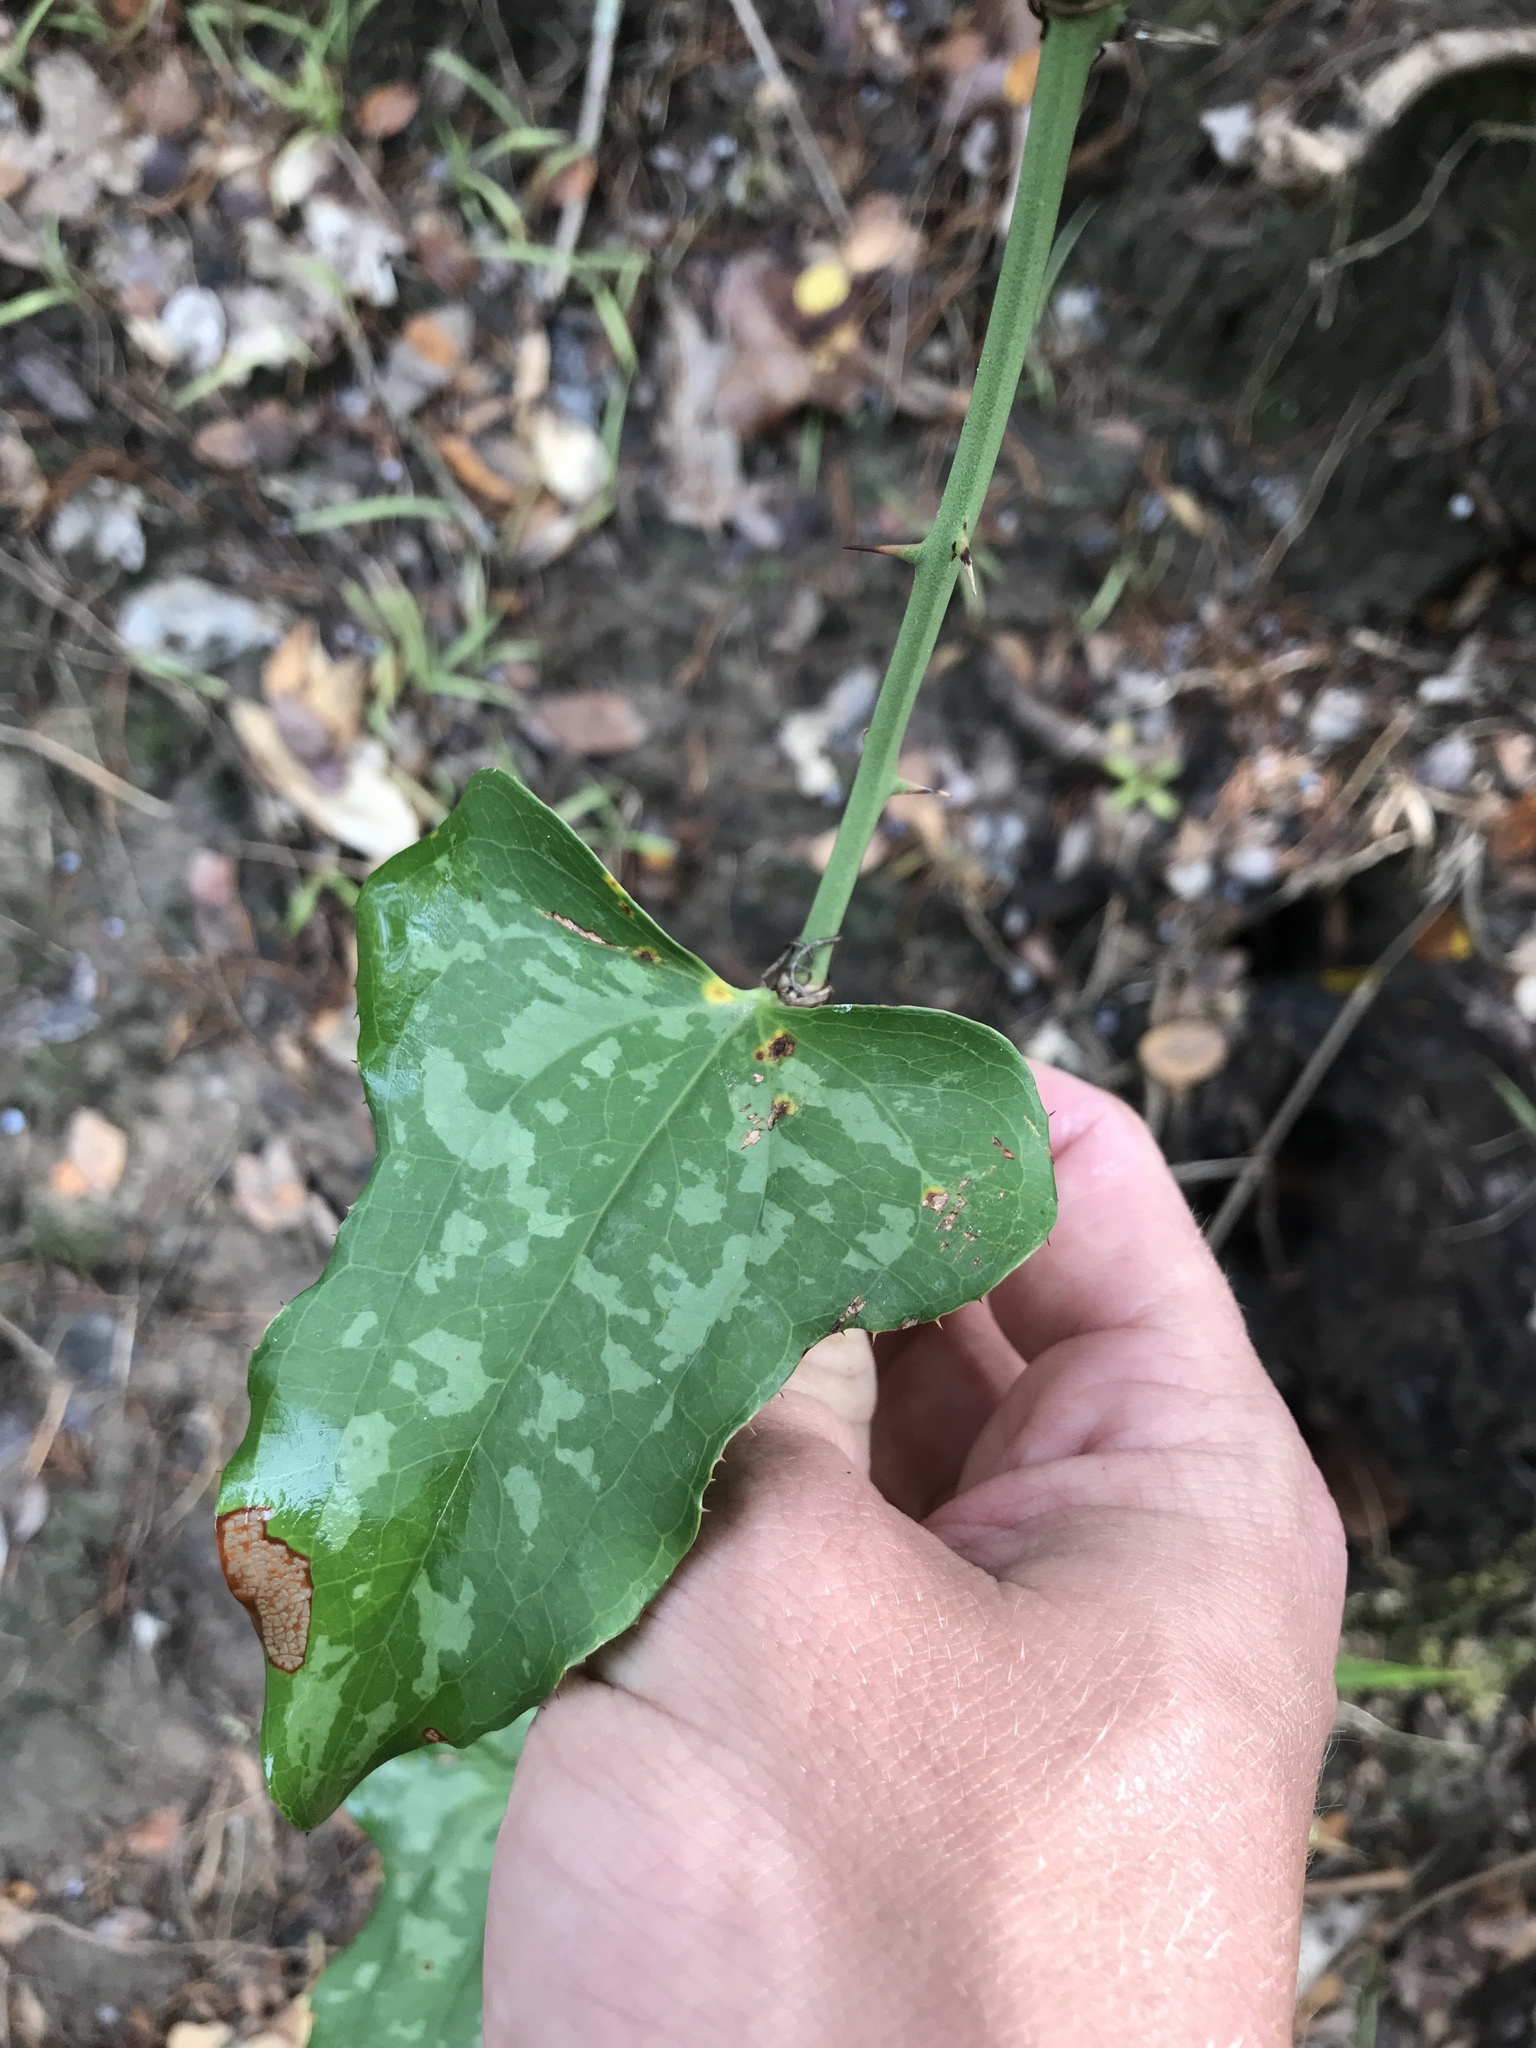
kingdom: Plantae
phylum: Tracheophyta
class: Liliopsida
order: Liliales
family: Smilacaceae
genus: Smilax
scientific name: Smilax bona-nox
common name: Catbrier
